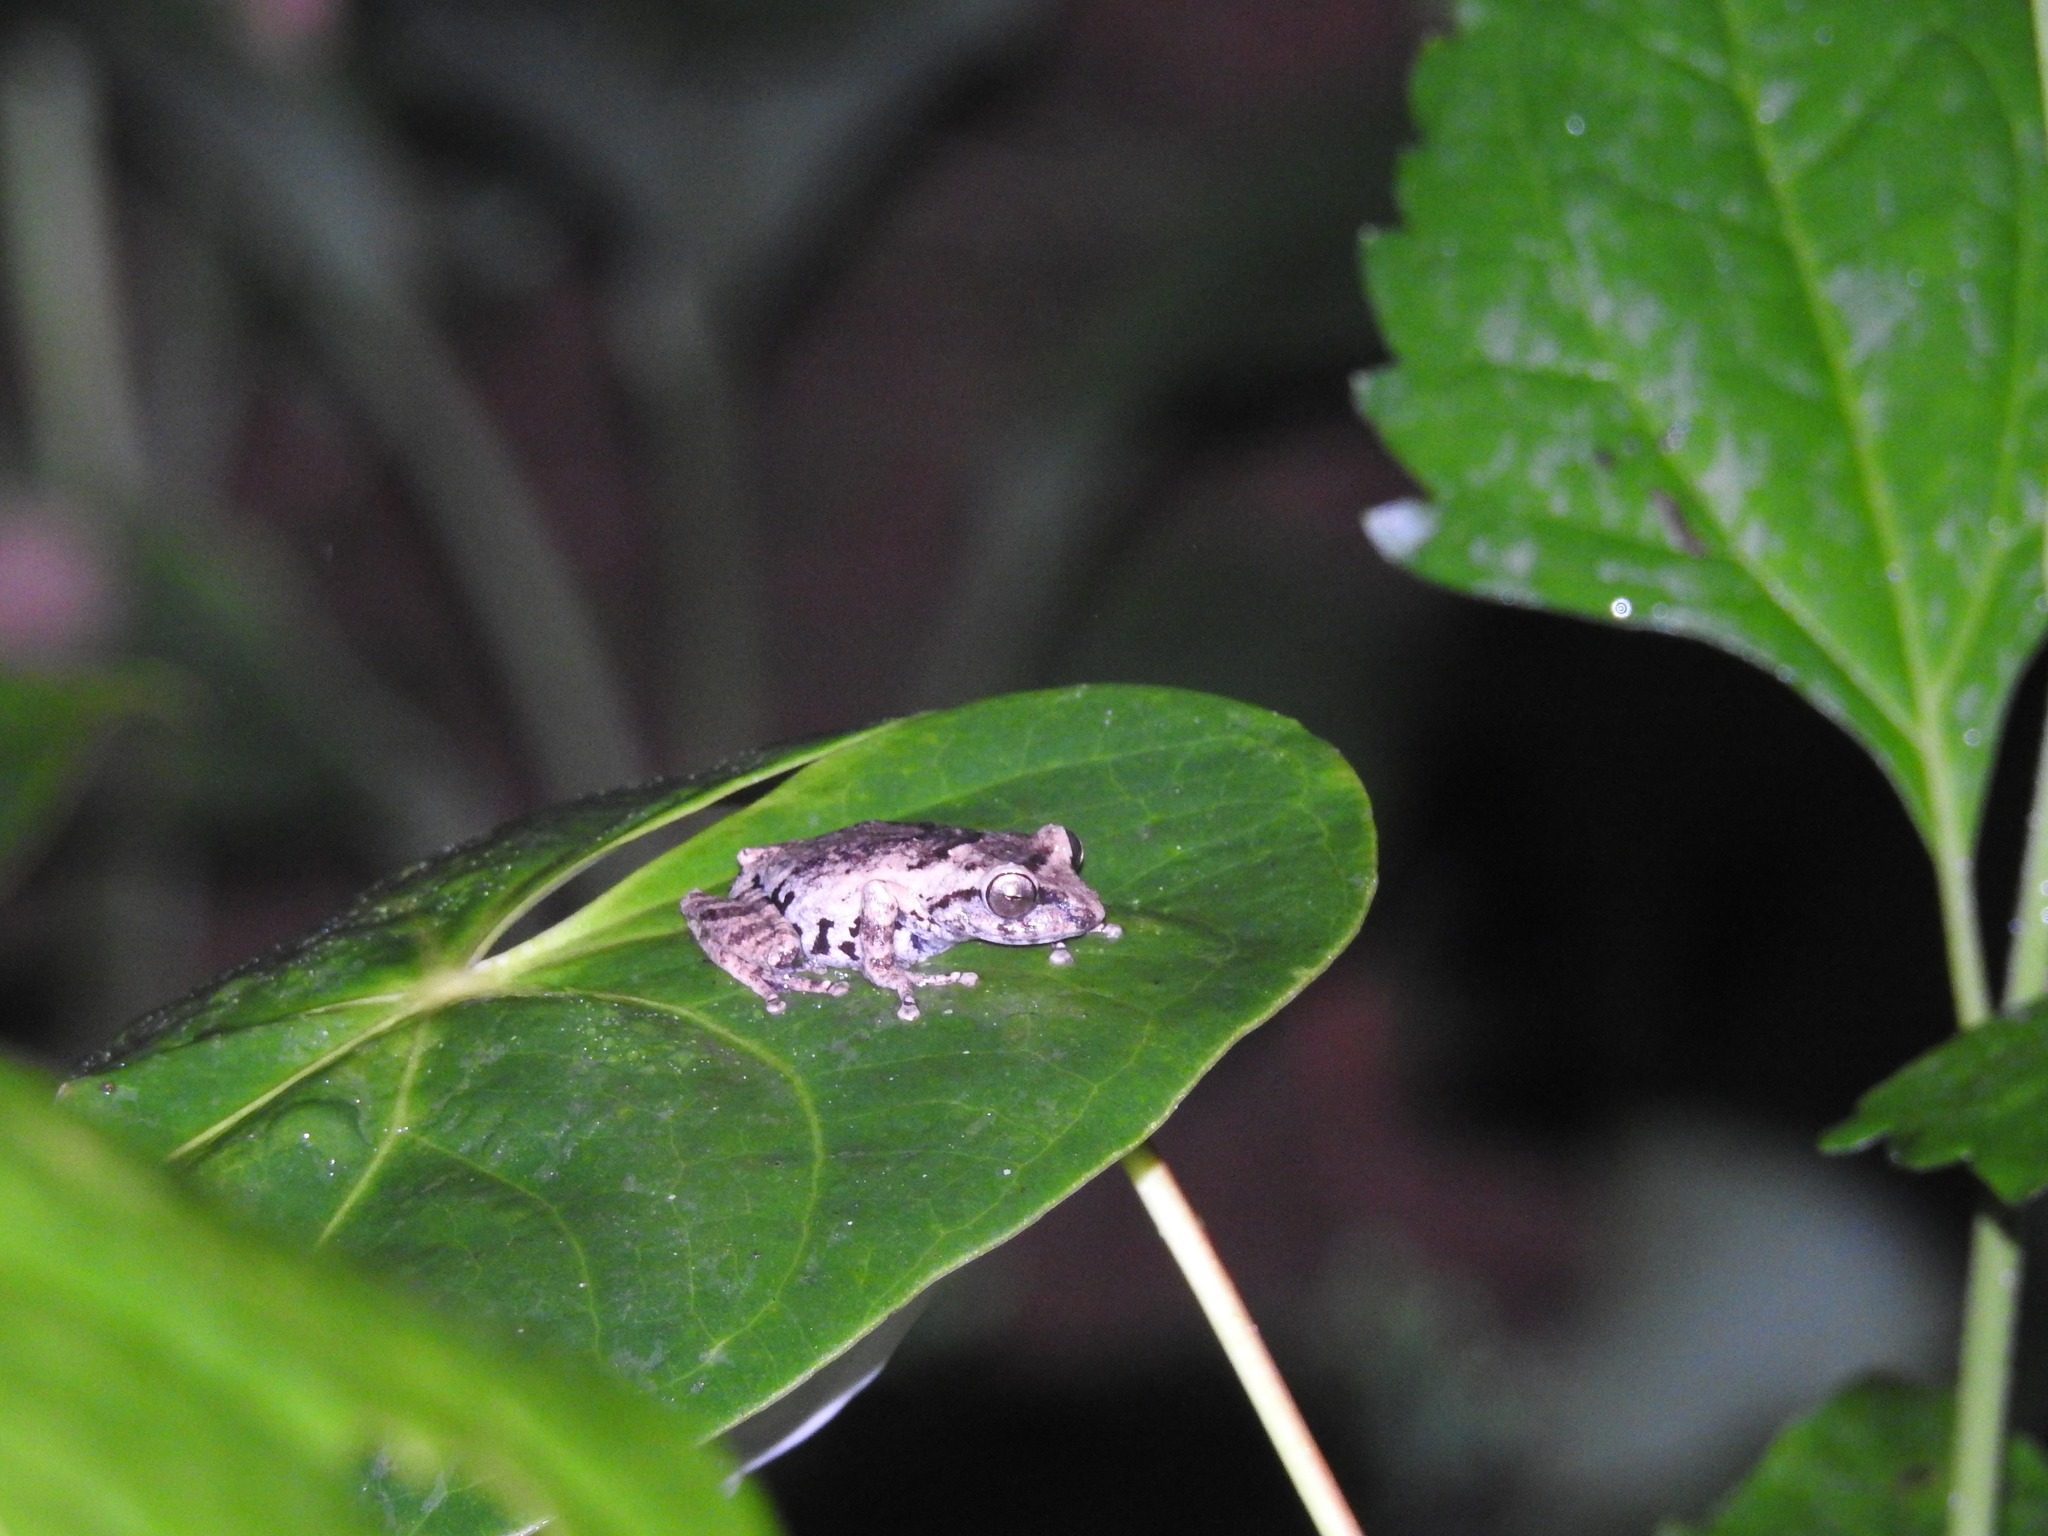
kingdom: Animalia
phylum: Chordata
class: Amphibia
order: Anura
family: Rhacophoridae
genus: Raorchestes
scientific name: Raorchestes anili
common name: Anil's bush frog
